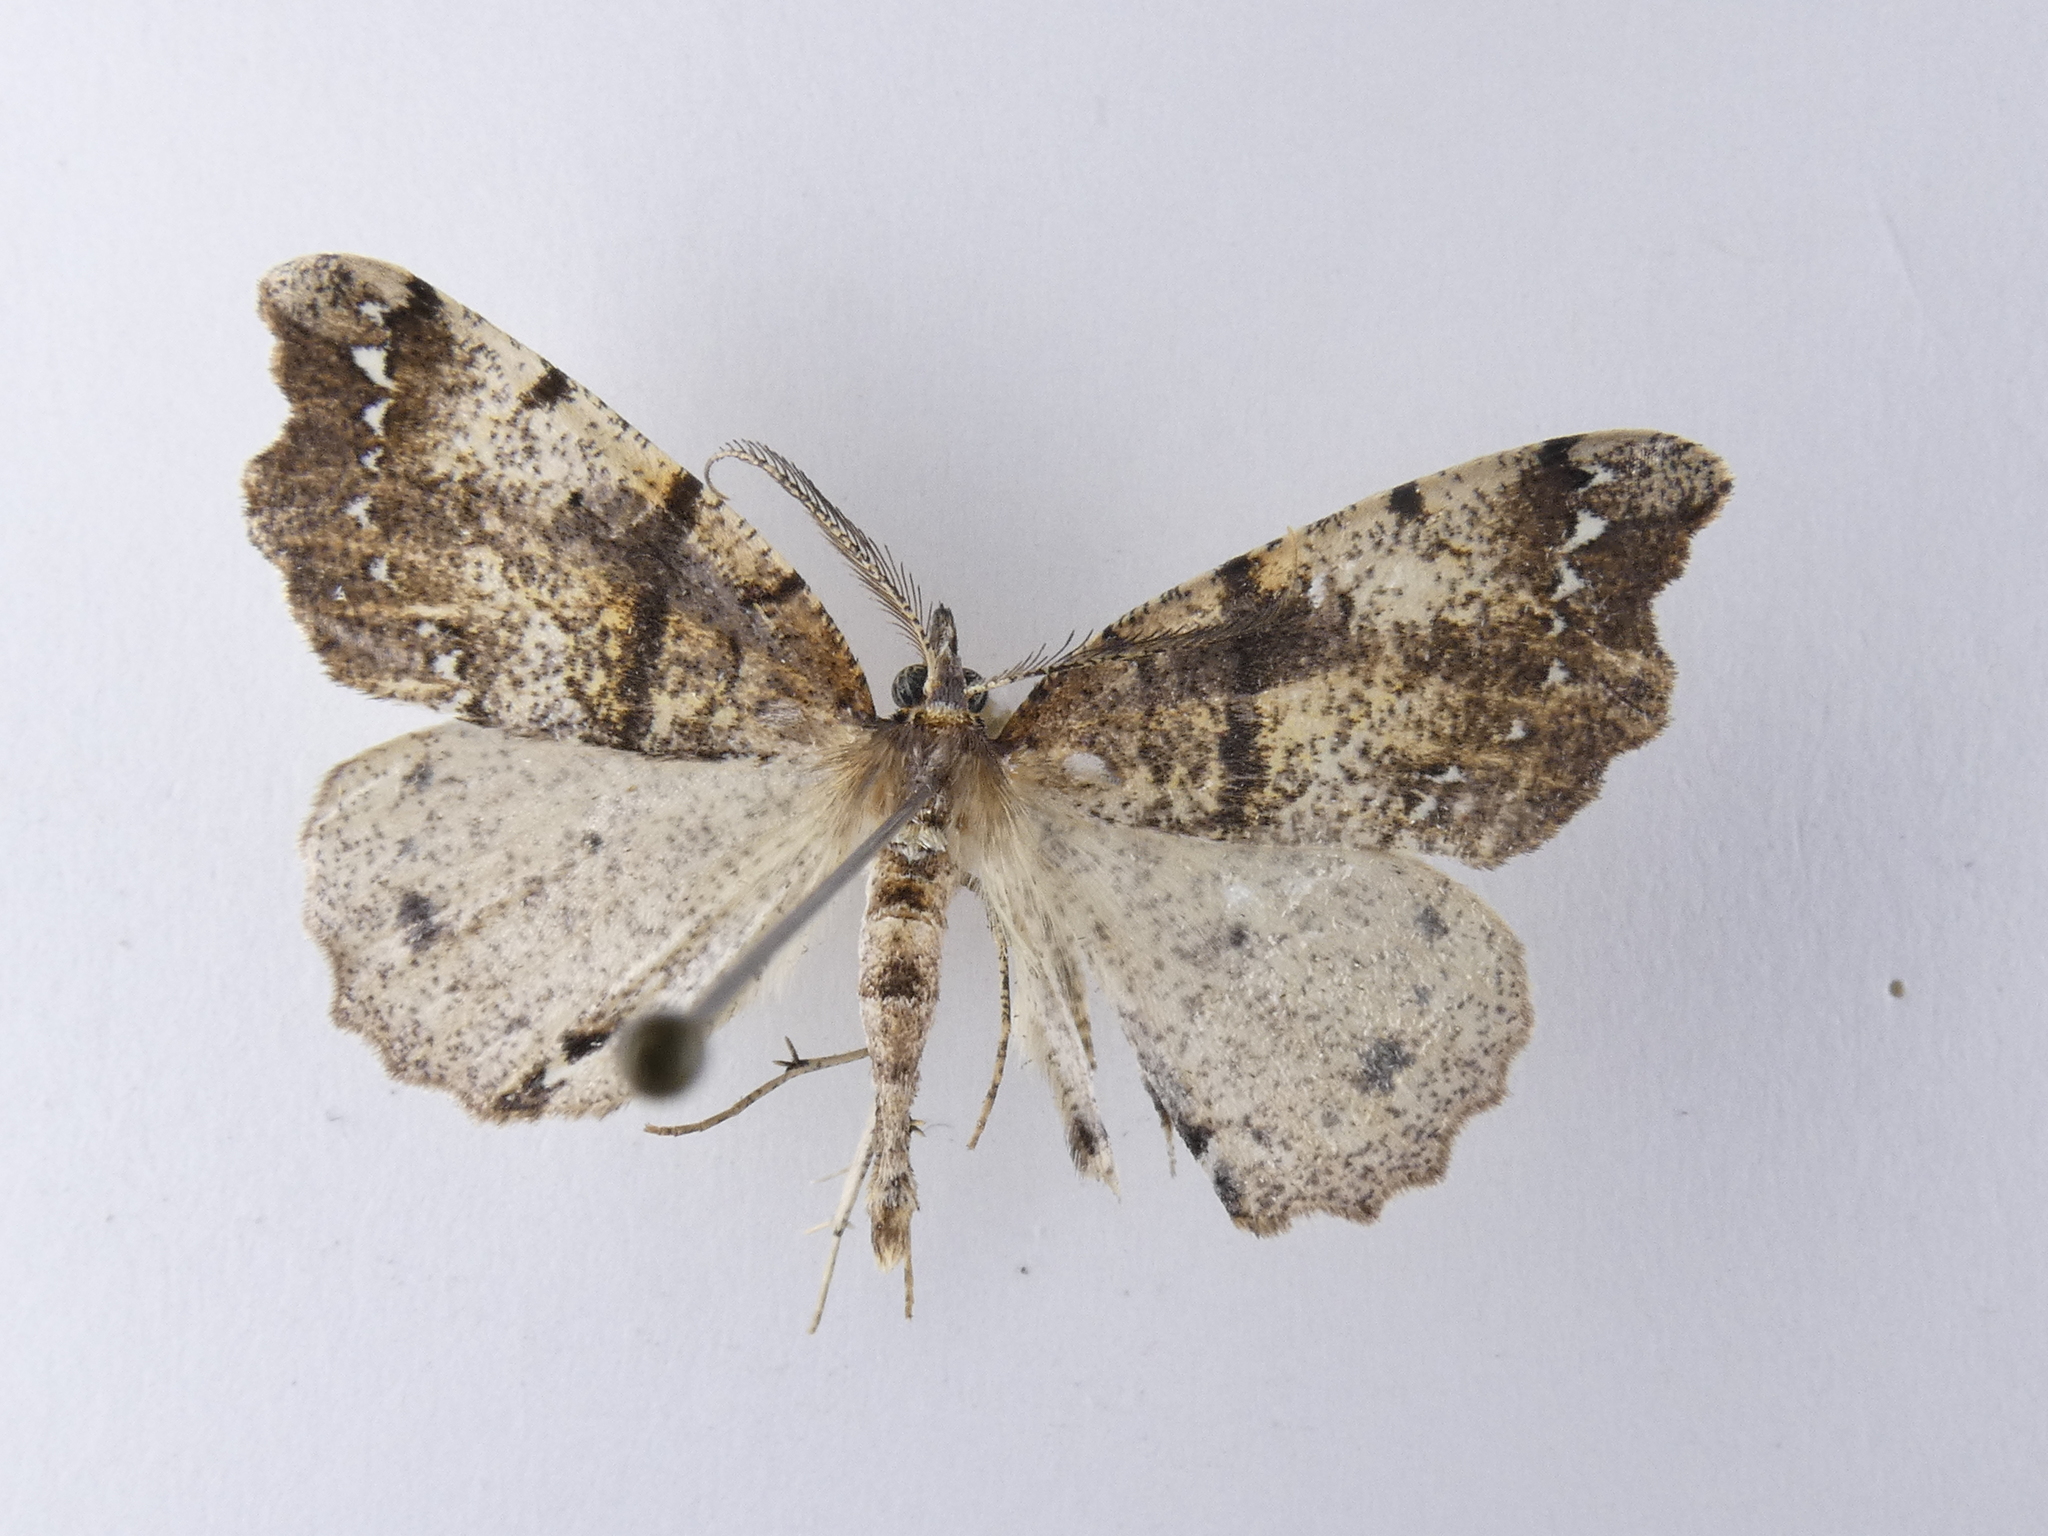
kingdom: Animalia
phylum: Arthropoda
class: Insecta
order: Lepidoptera
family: Geometridae
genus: Chalastra
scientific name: Chalastra pellurgata
